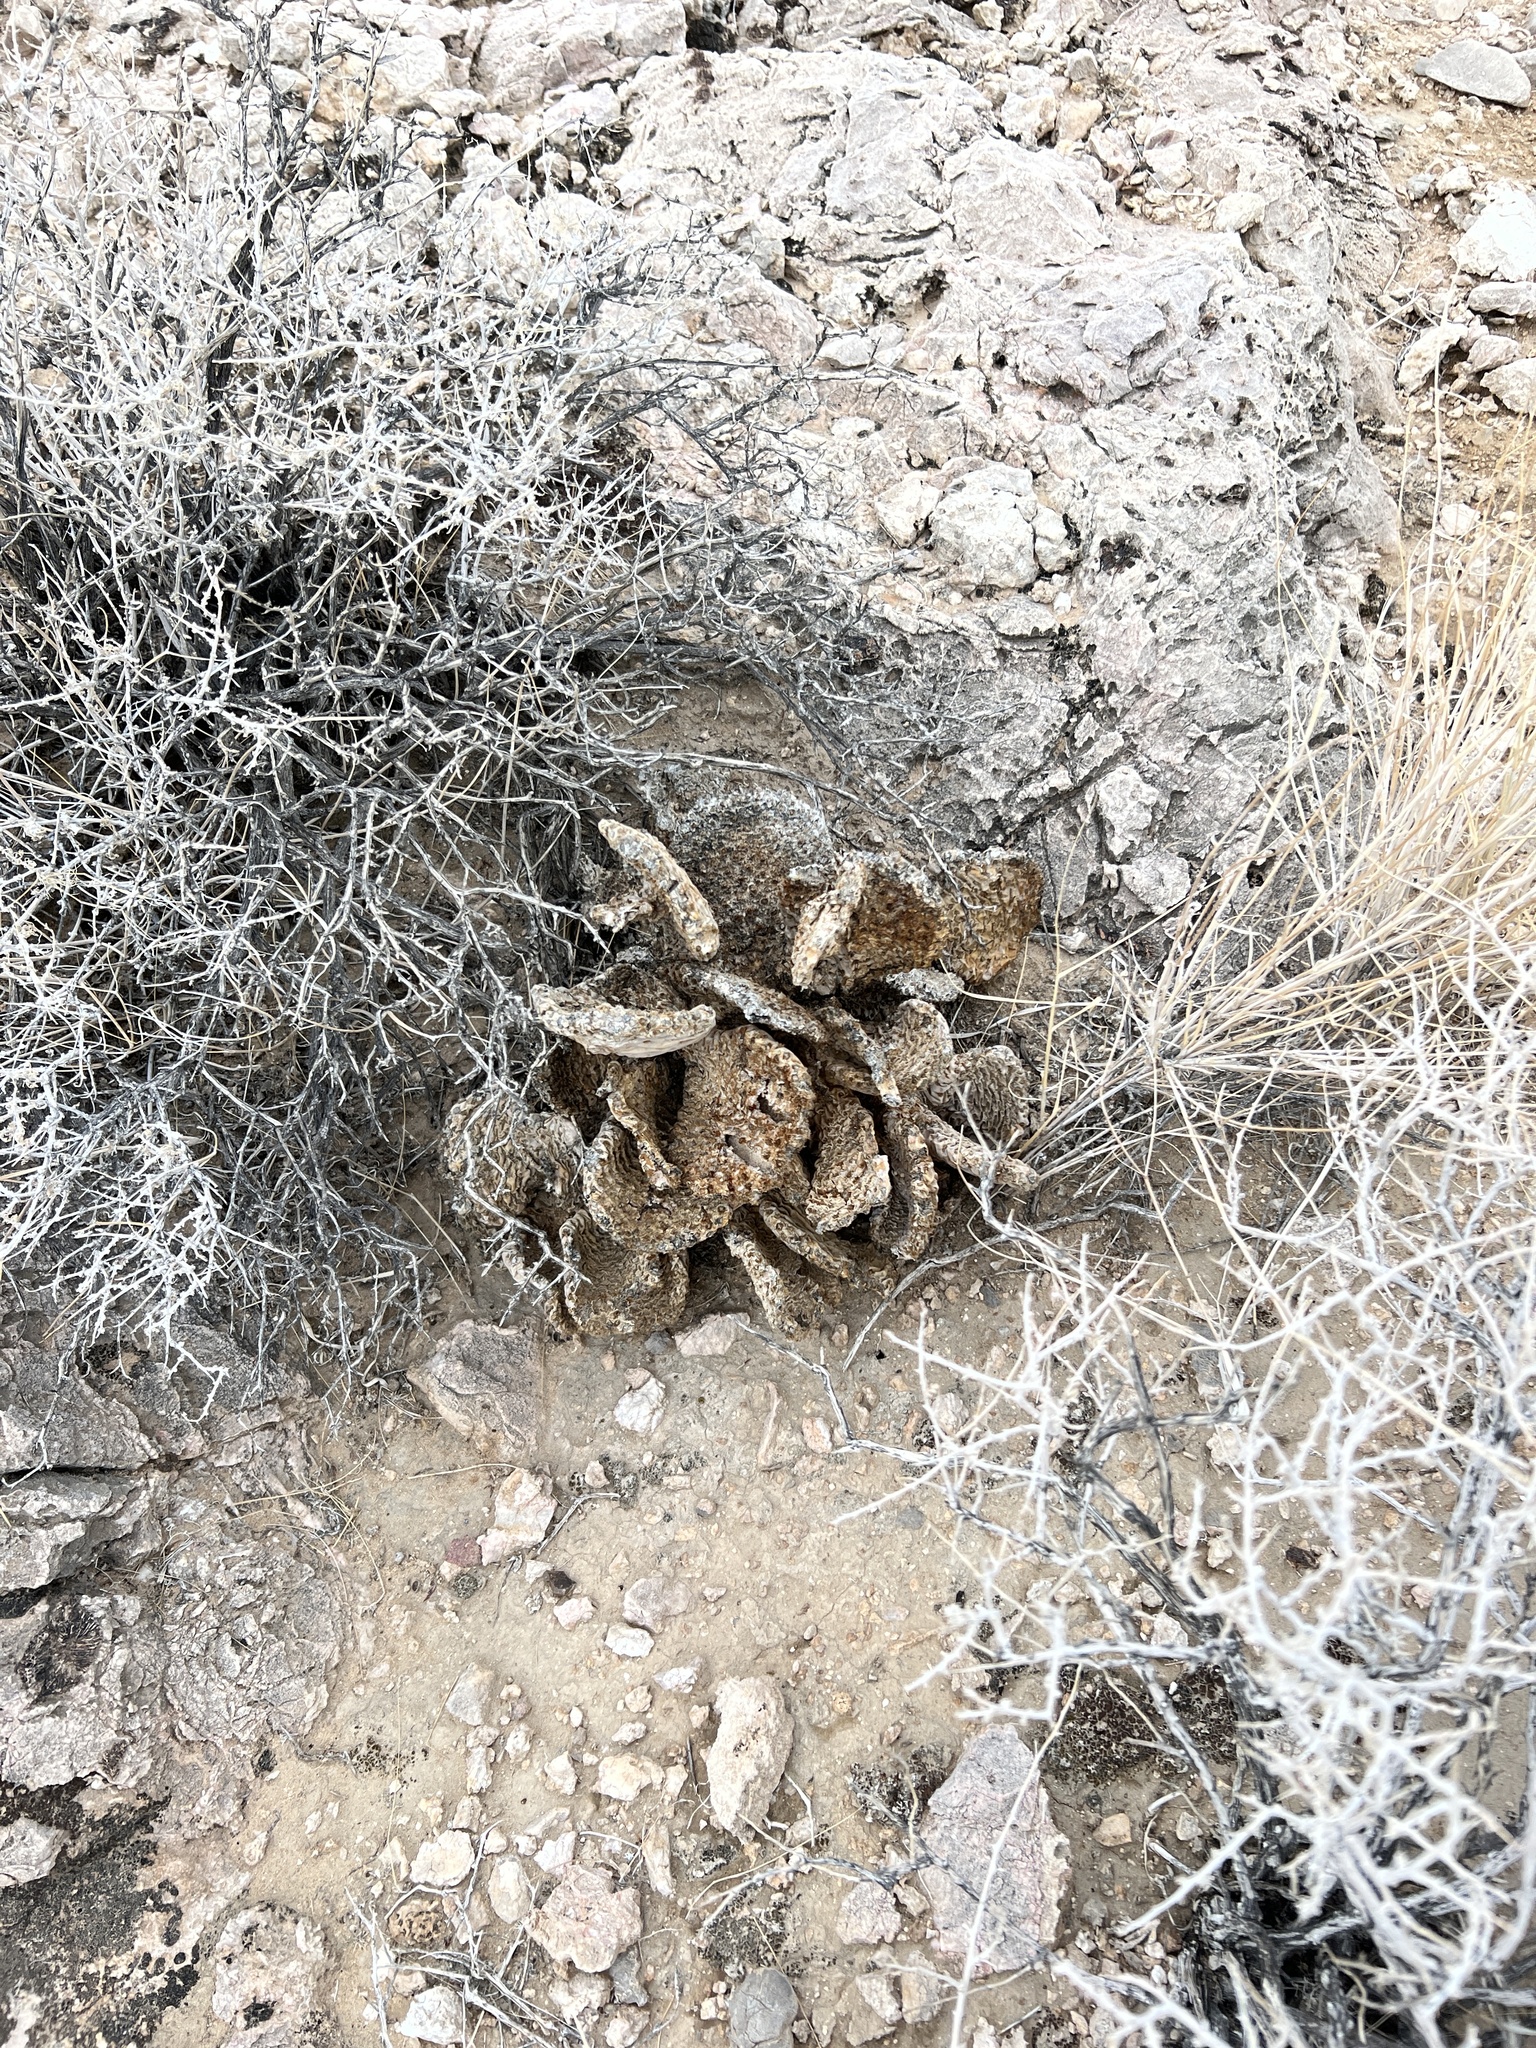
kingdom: Plantae
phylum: Tracheophyta
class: Magnoliopsida
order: Caryophyllales
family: Cactaceae
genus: Opuntia
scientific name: Opuntia basilaris
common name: Beavertail prickly-pear
